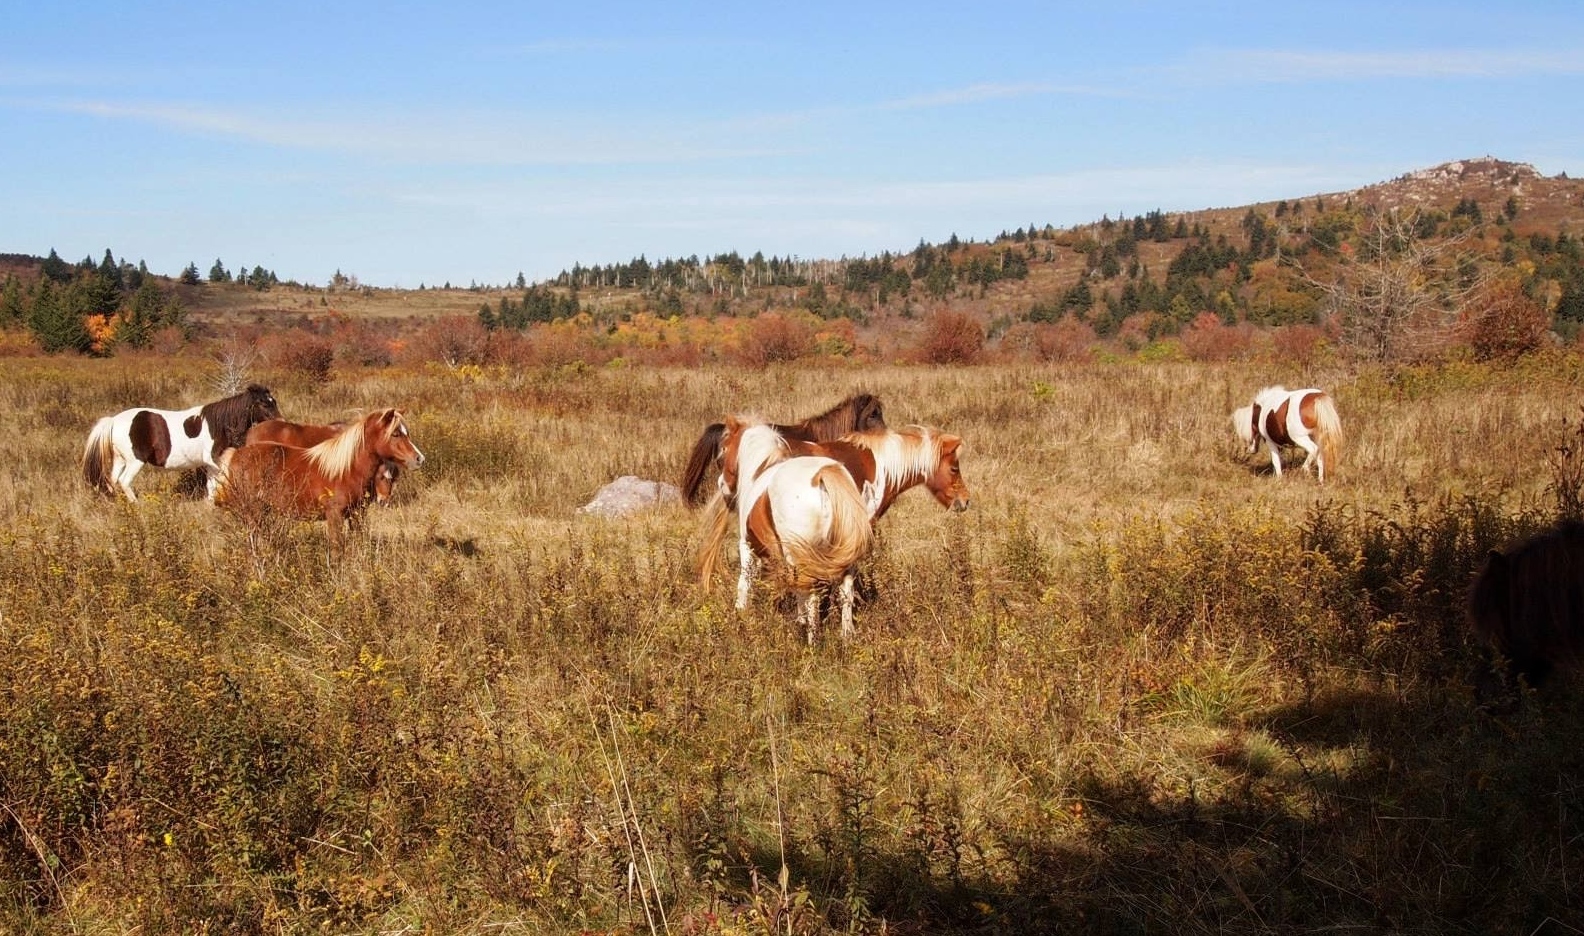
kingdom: Animalia
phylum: Chordata
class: Mammalia
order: Perissodactyla
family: Equidae
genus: Equus
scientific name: Equus caballus
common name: Horse
